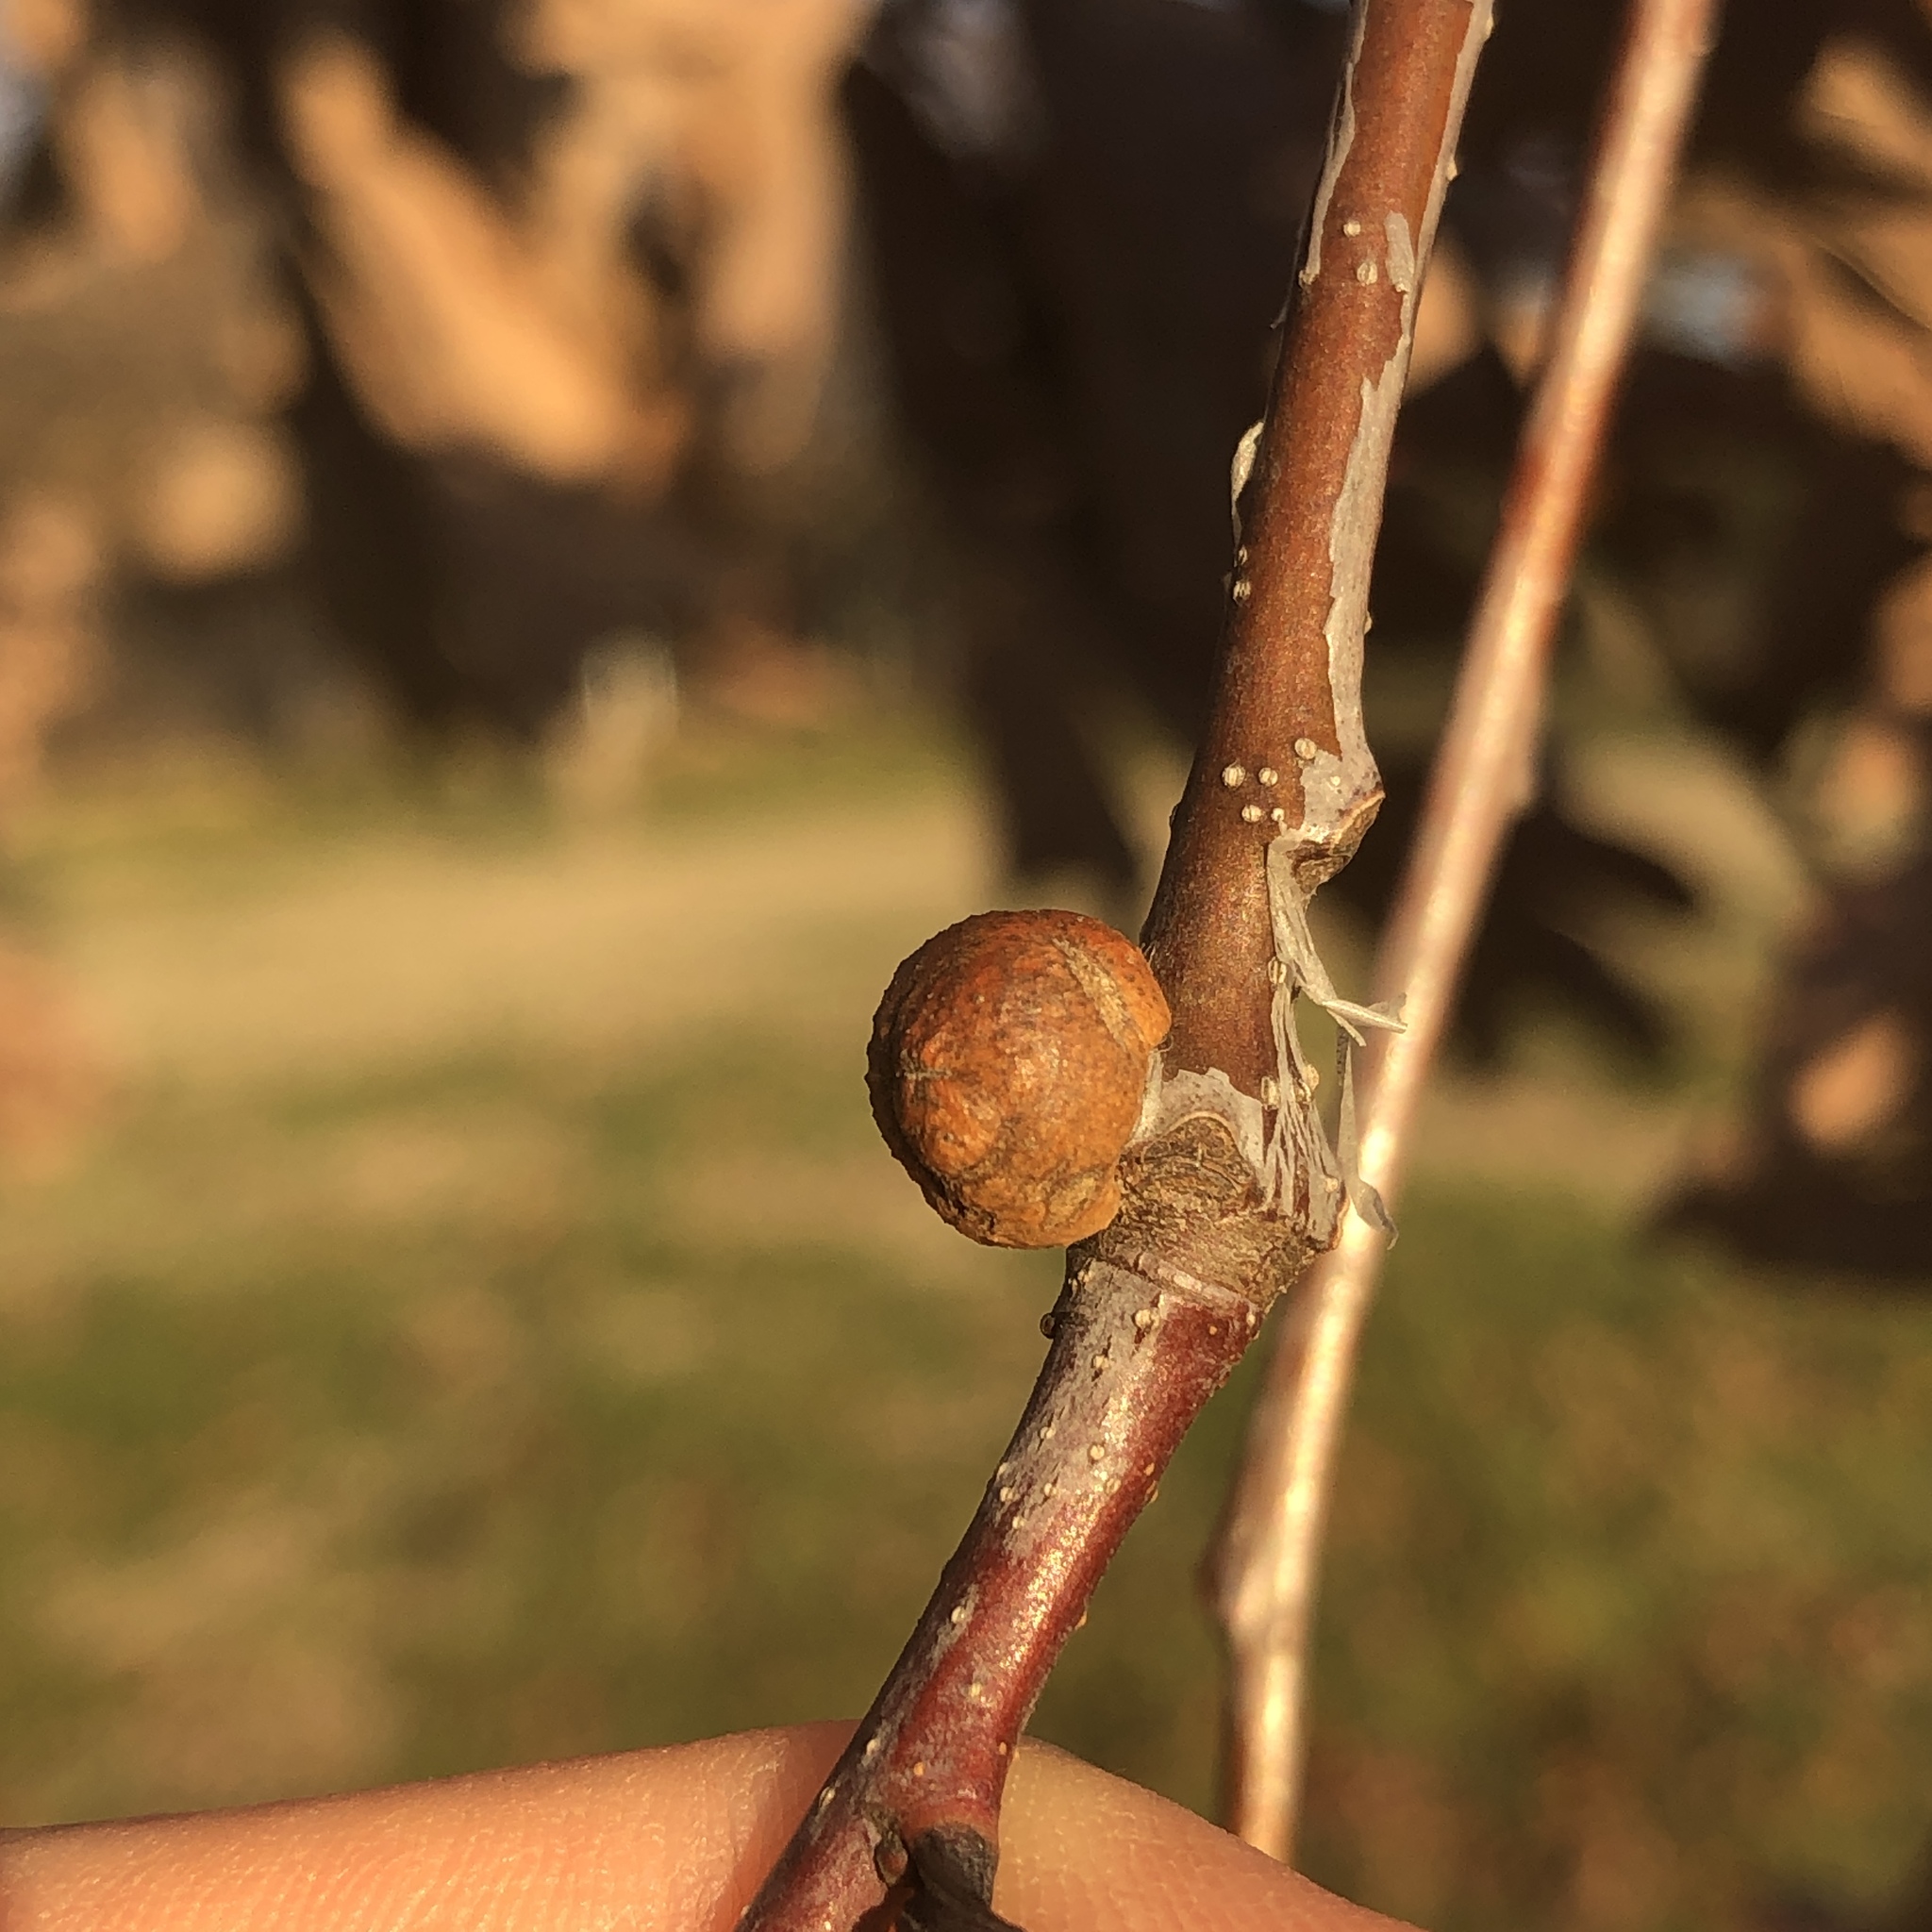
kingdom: Animalia
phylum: Arthropoda
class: Insecta
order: Hymenoptera
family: Cynipidae
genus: Disholcaspis
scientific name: Disholcaspis quercusglobulus
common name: Round bullet gall wasp
